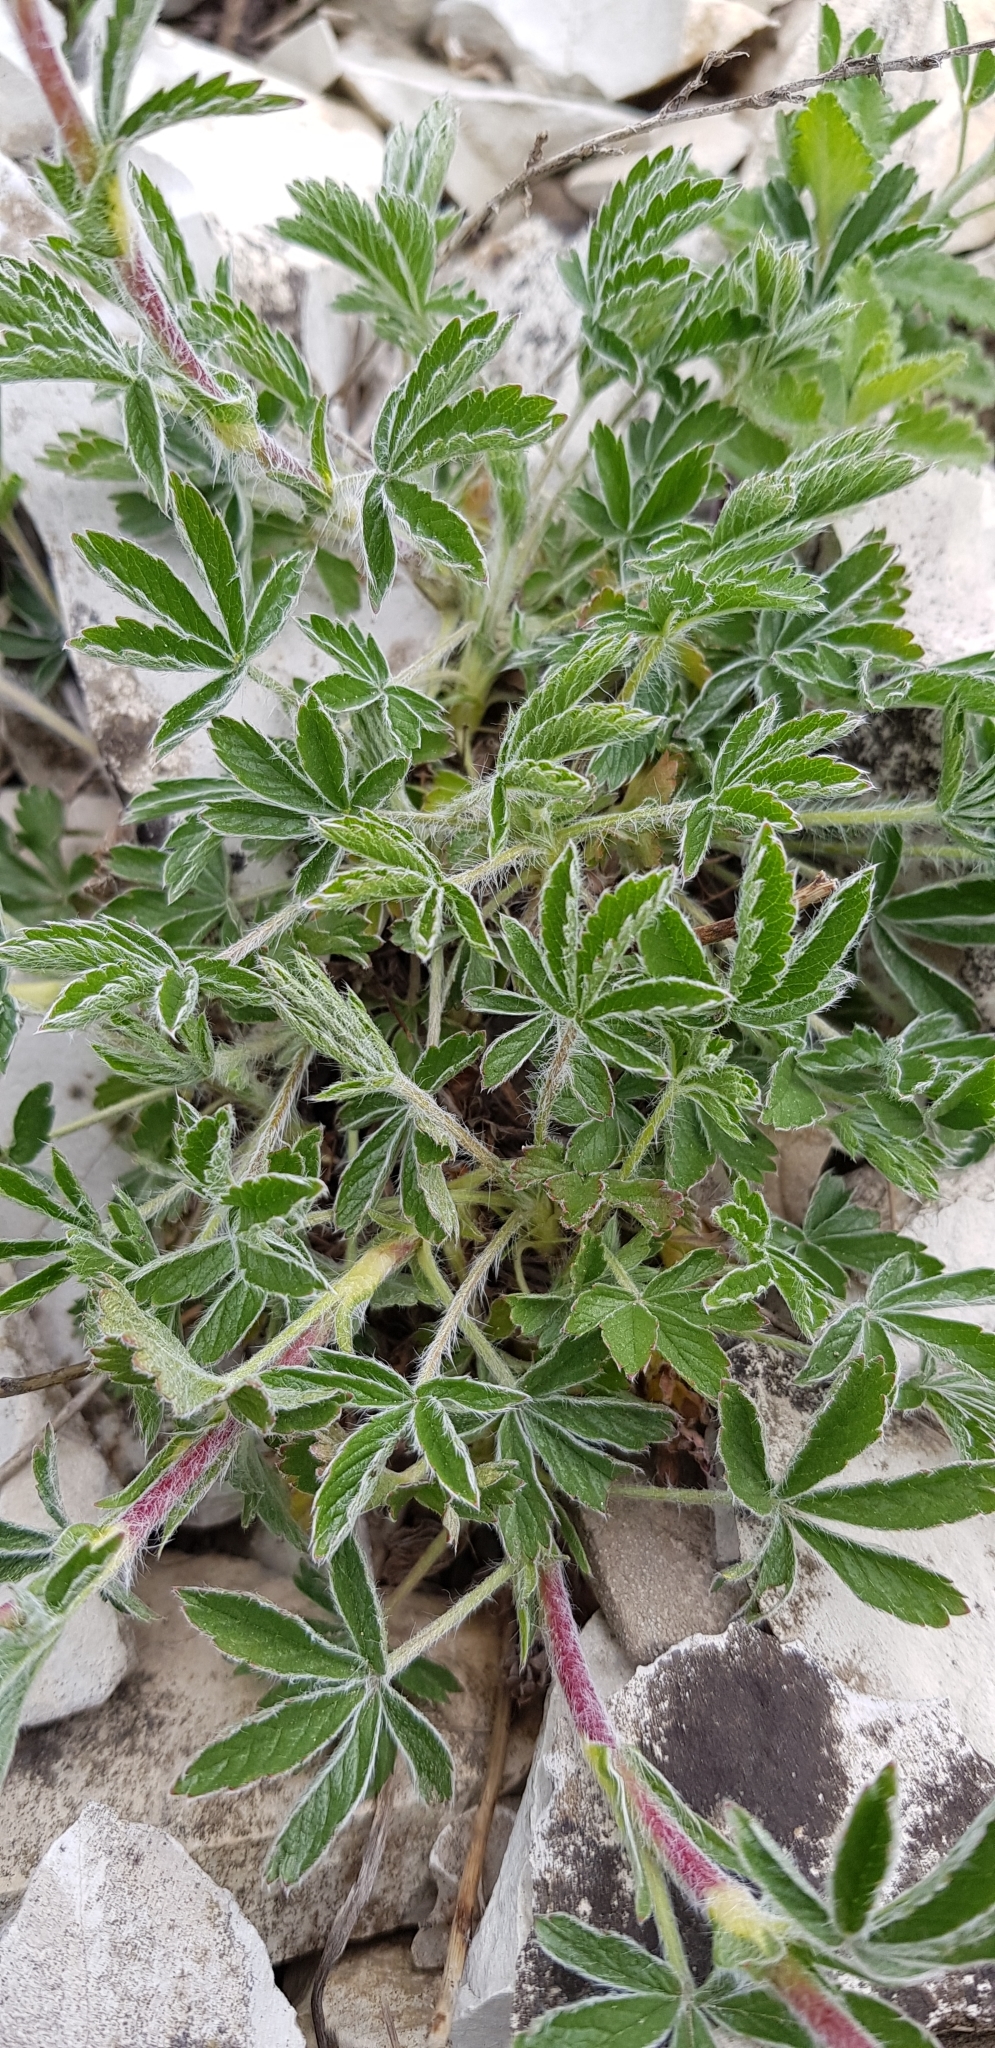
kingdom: Plantae
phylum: Tracheophyta
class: Magnoliopsida
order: Rosales
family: Rosaceae
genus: Potentilla
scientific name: Potentilla taurica
